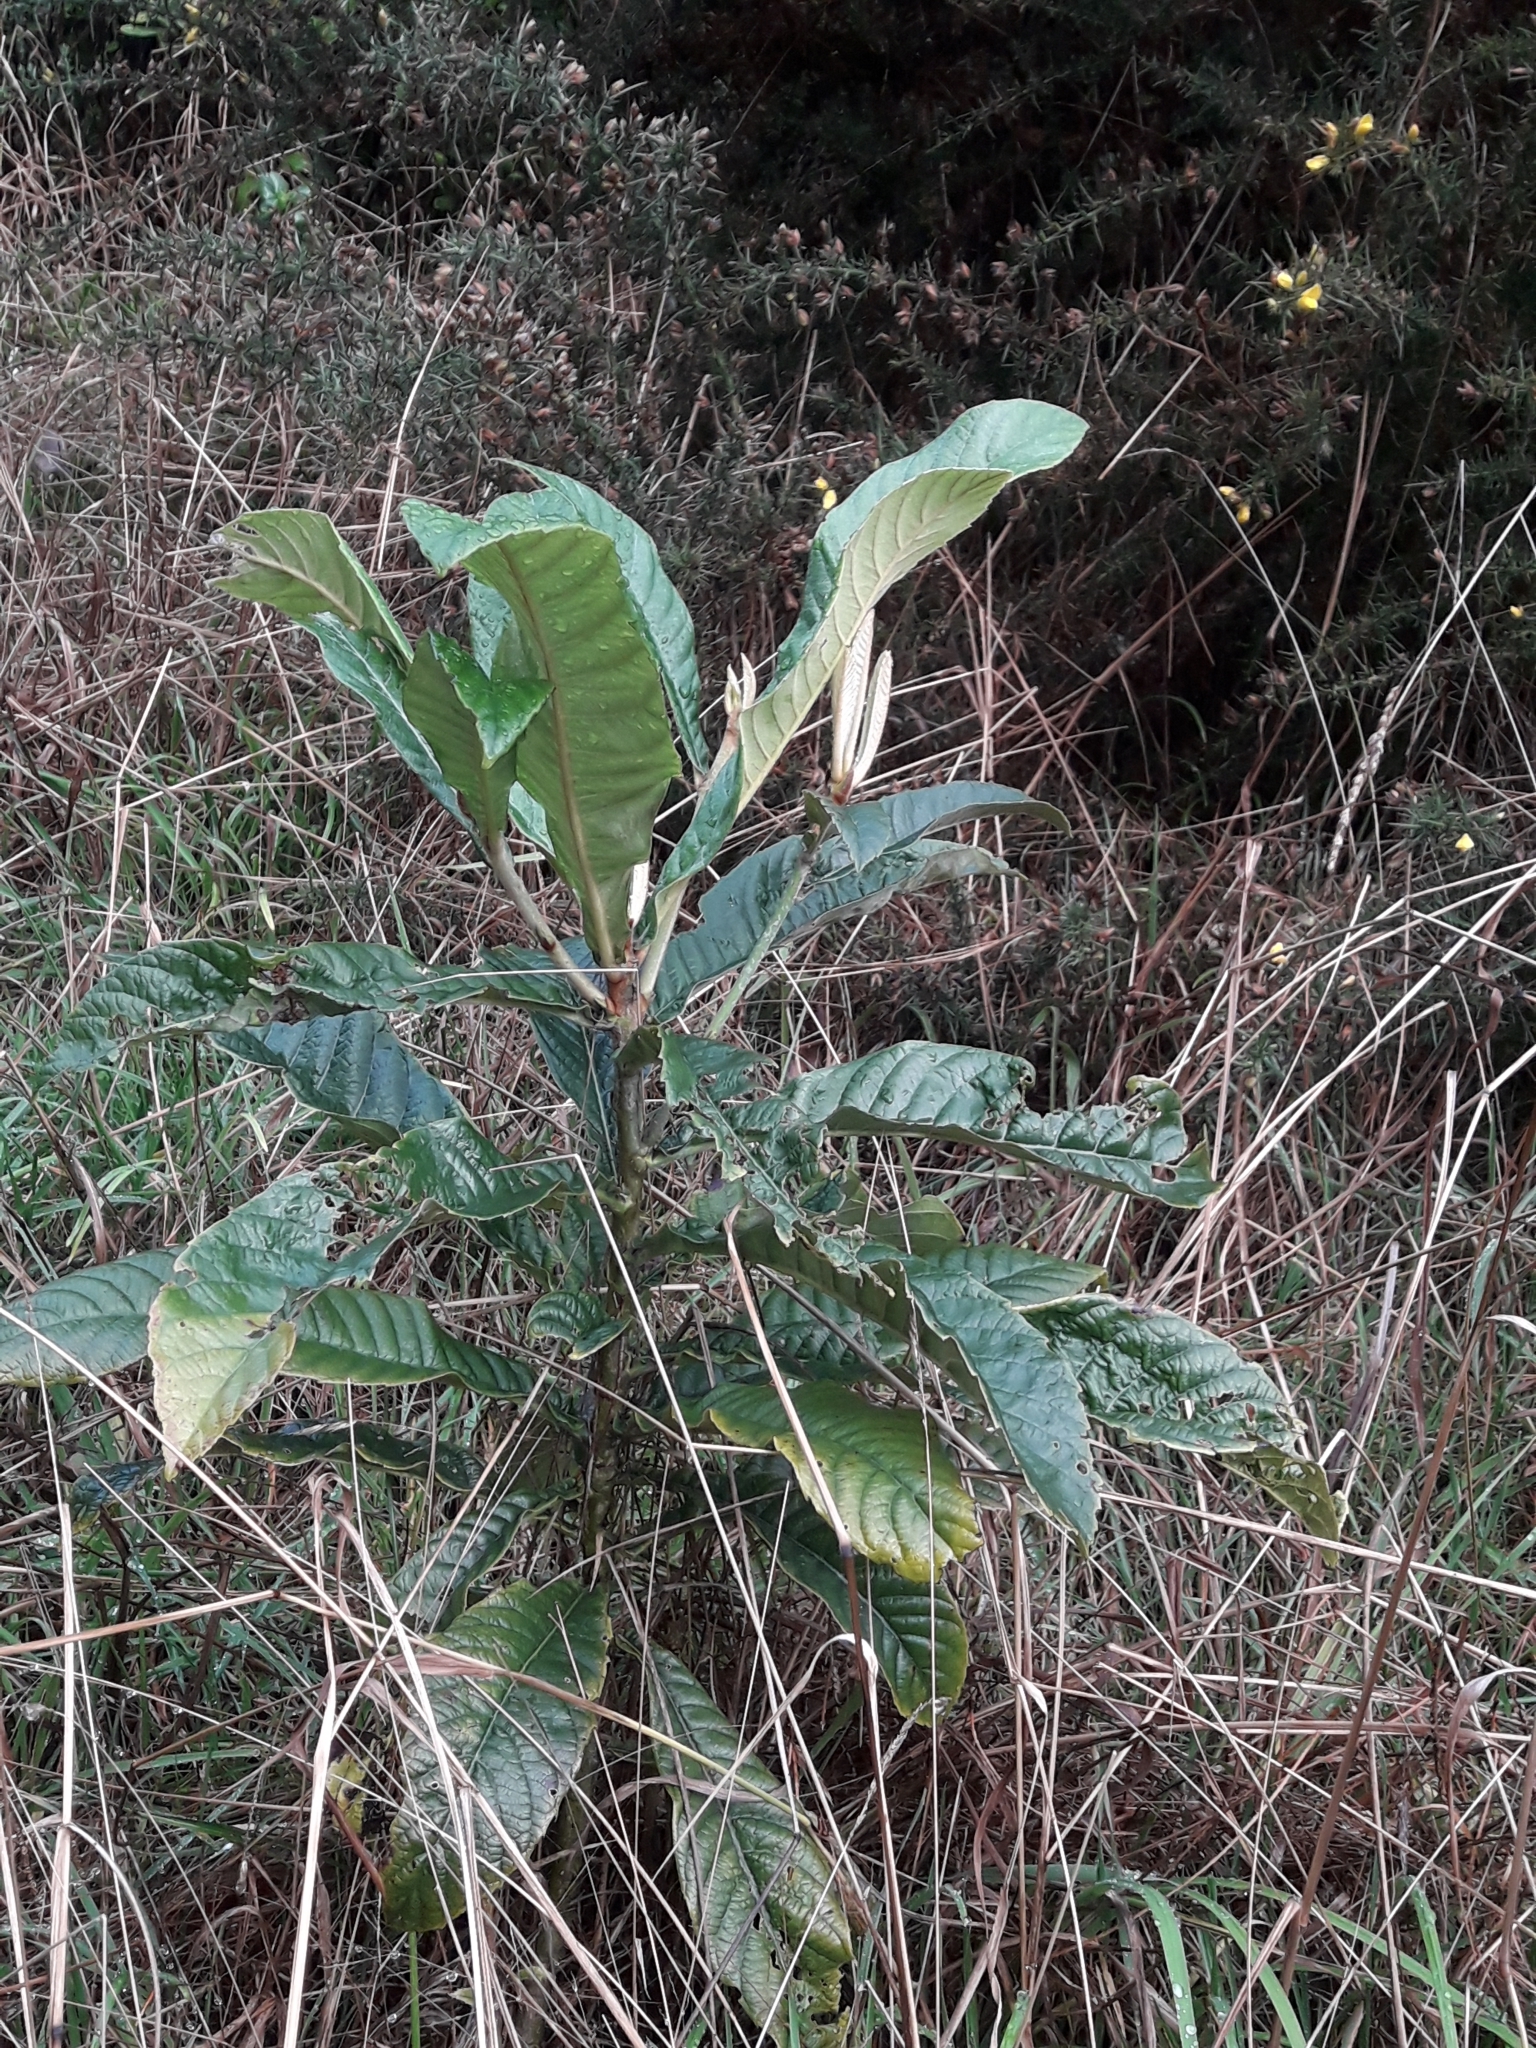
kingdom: Plantae
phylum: Tracheophyta
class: Magnoliopsida
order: Rosales
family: Rosaceae
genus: Rhaphiolepis
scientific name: Rhaphiolepis bibas
